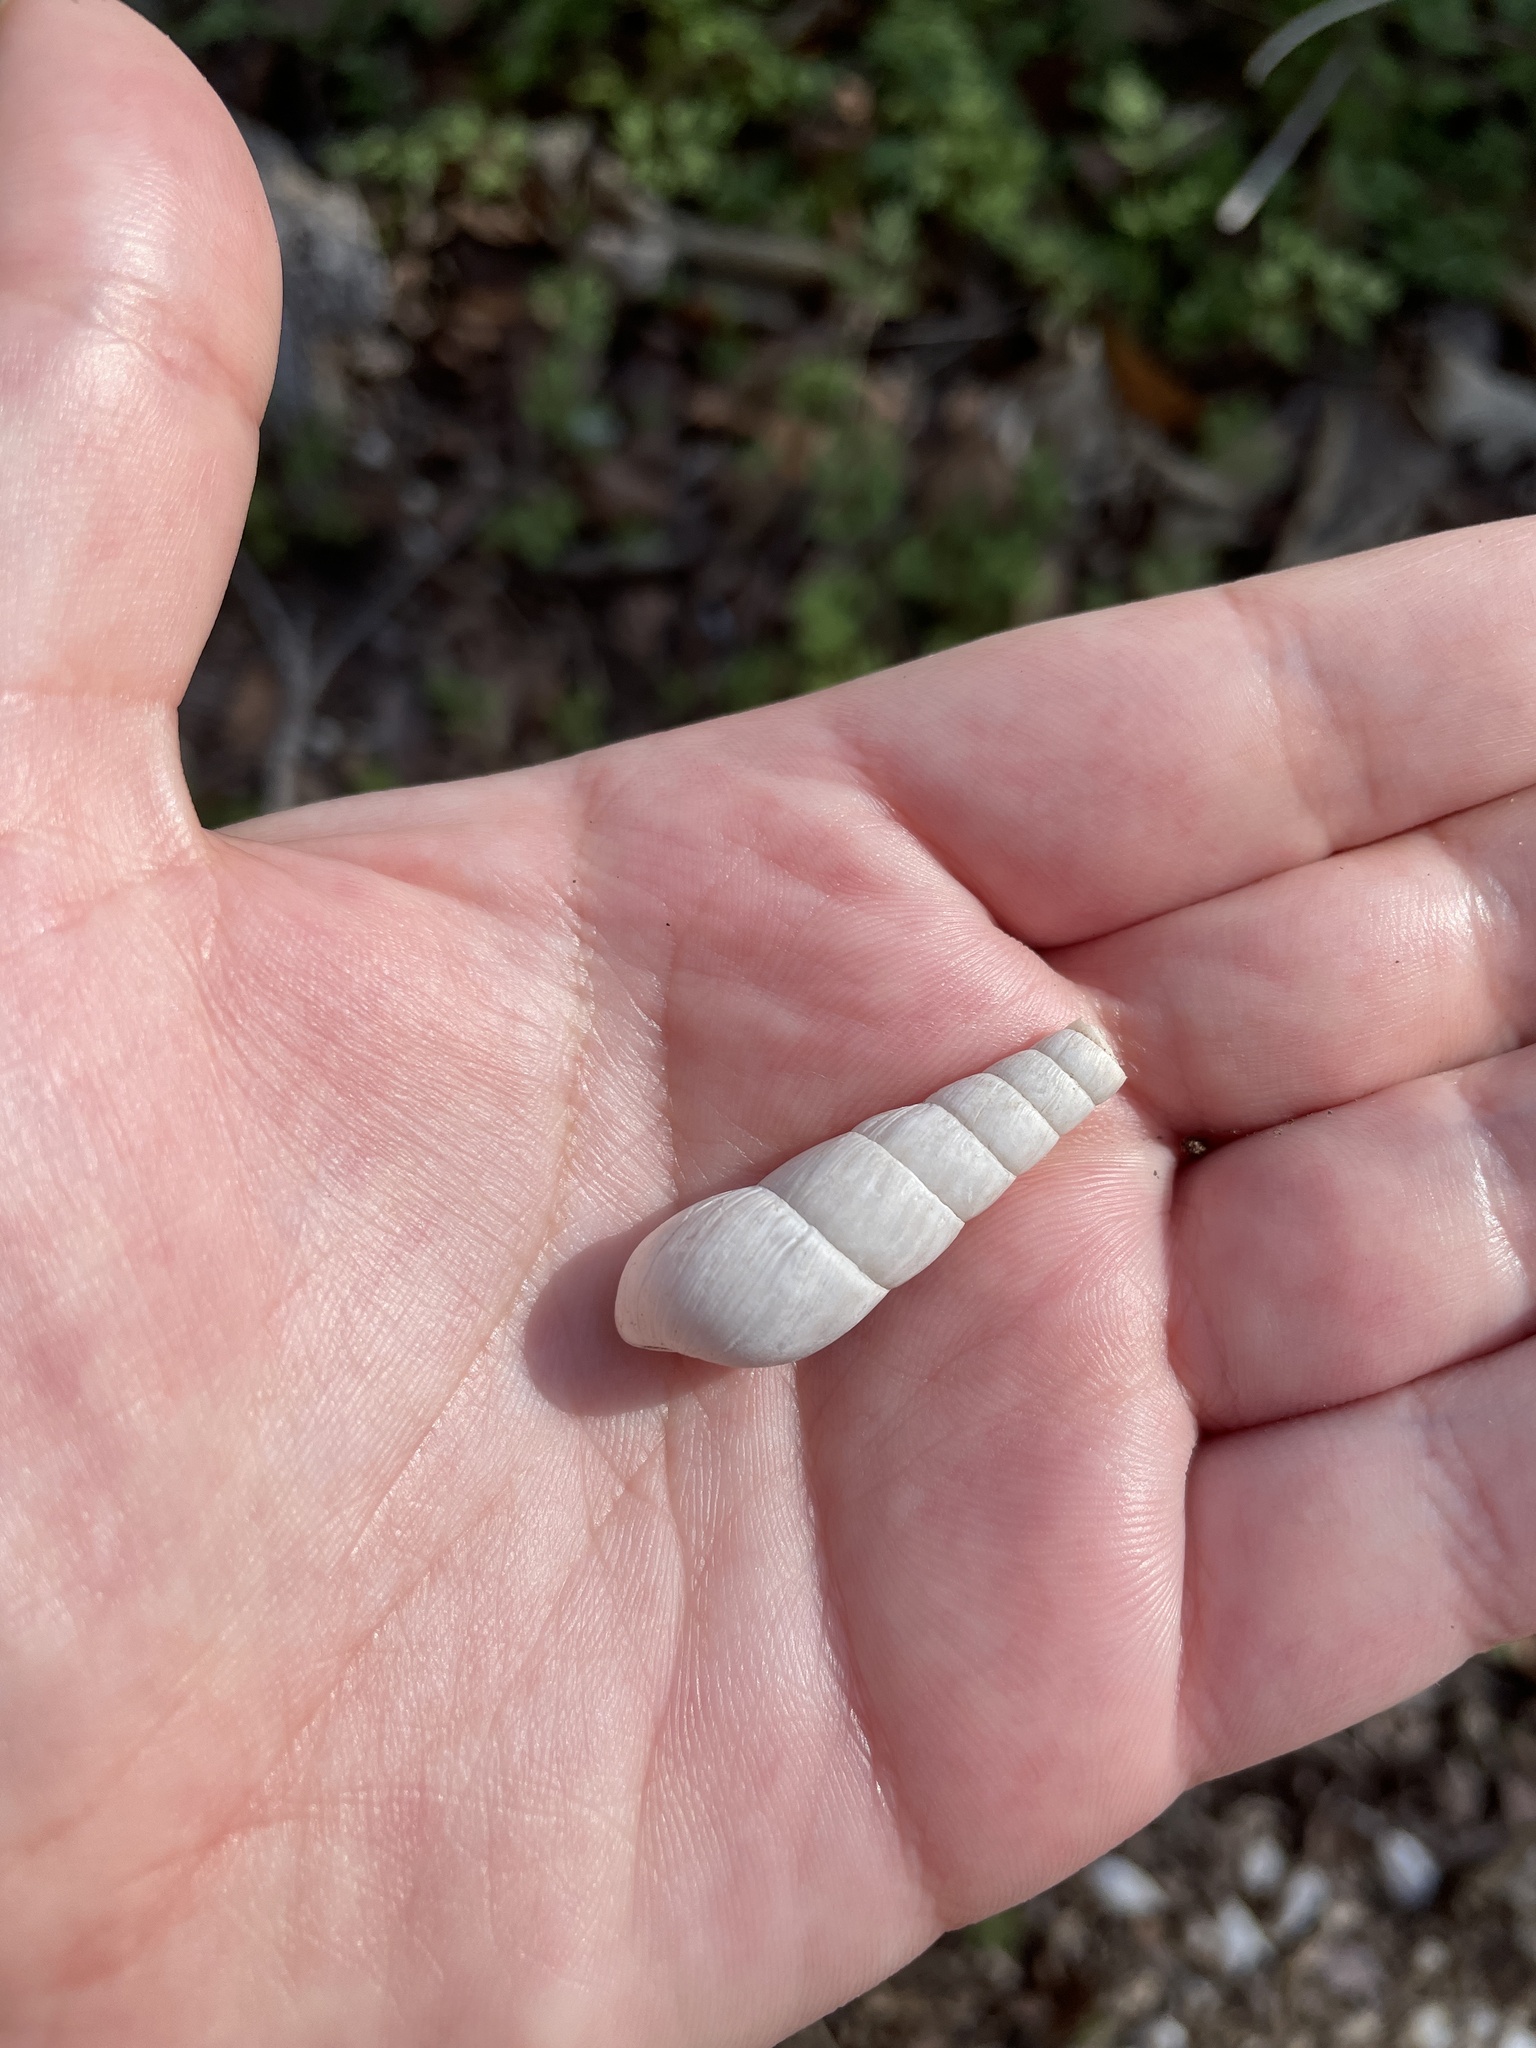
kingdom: Animalia
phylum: Mollusca
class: Gastropoda
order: Stylommatophora
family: Achatinidae
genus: Rumina
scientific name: Rumina decollata
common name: Decollate snail
